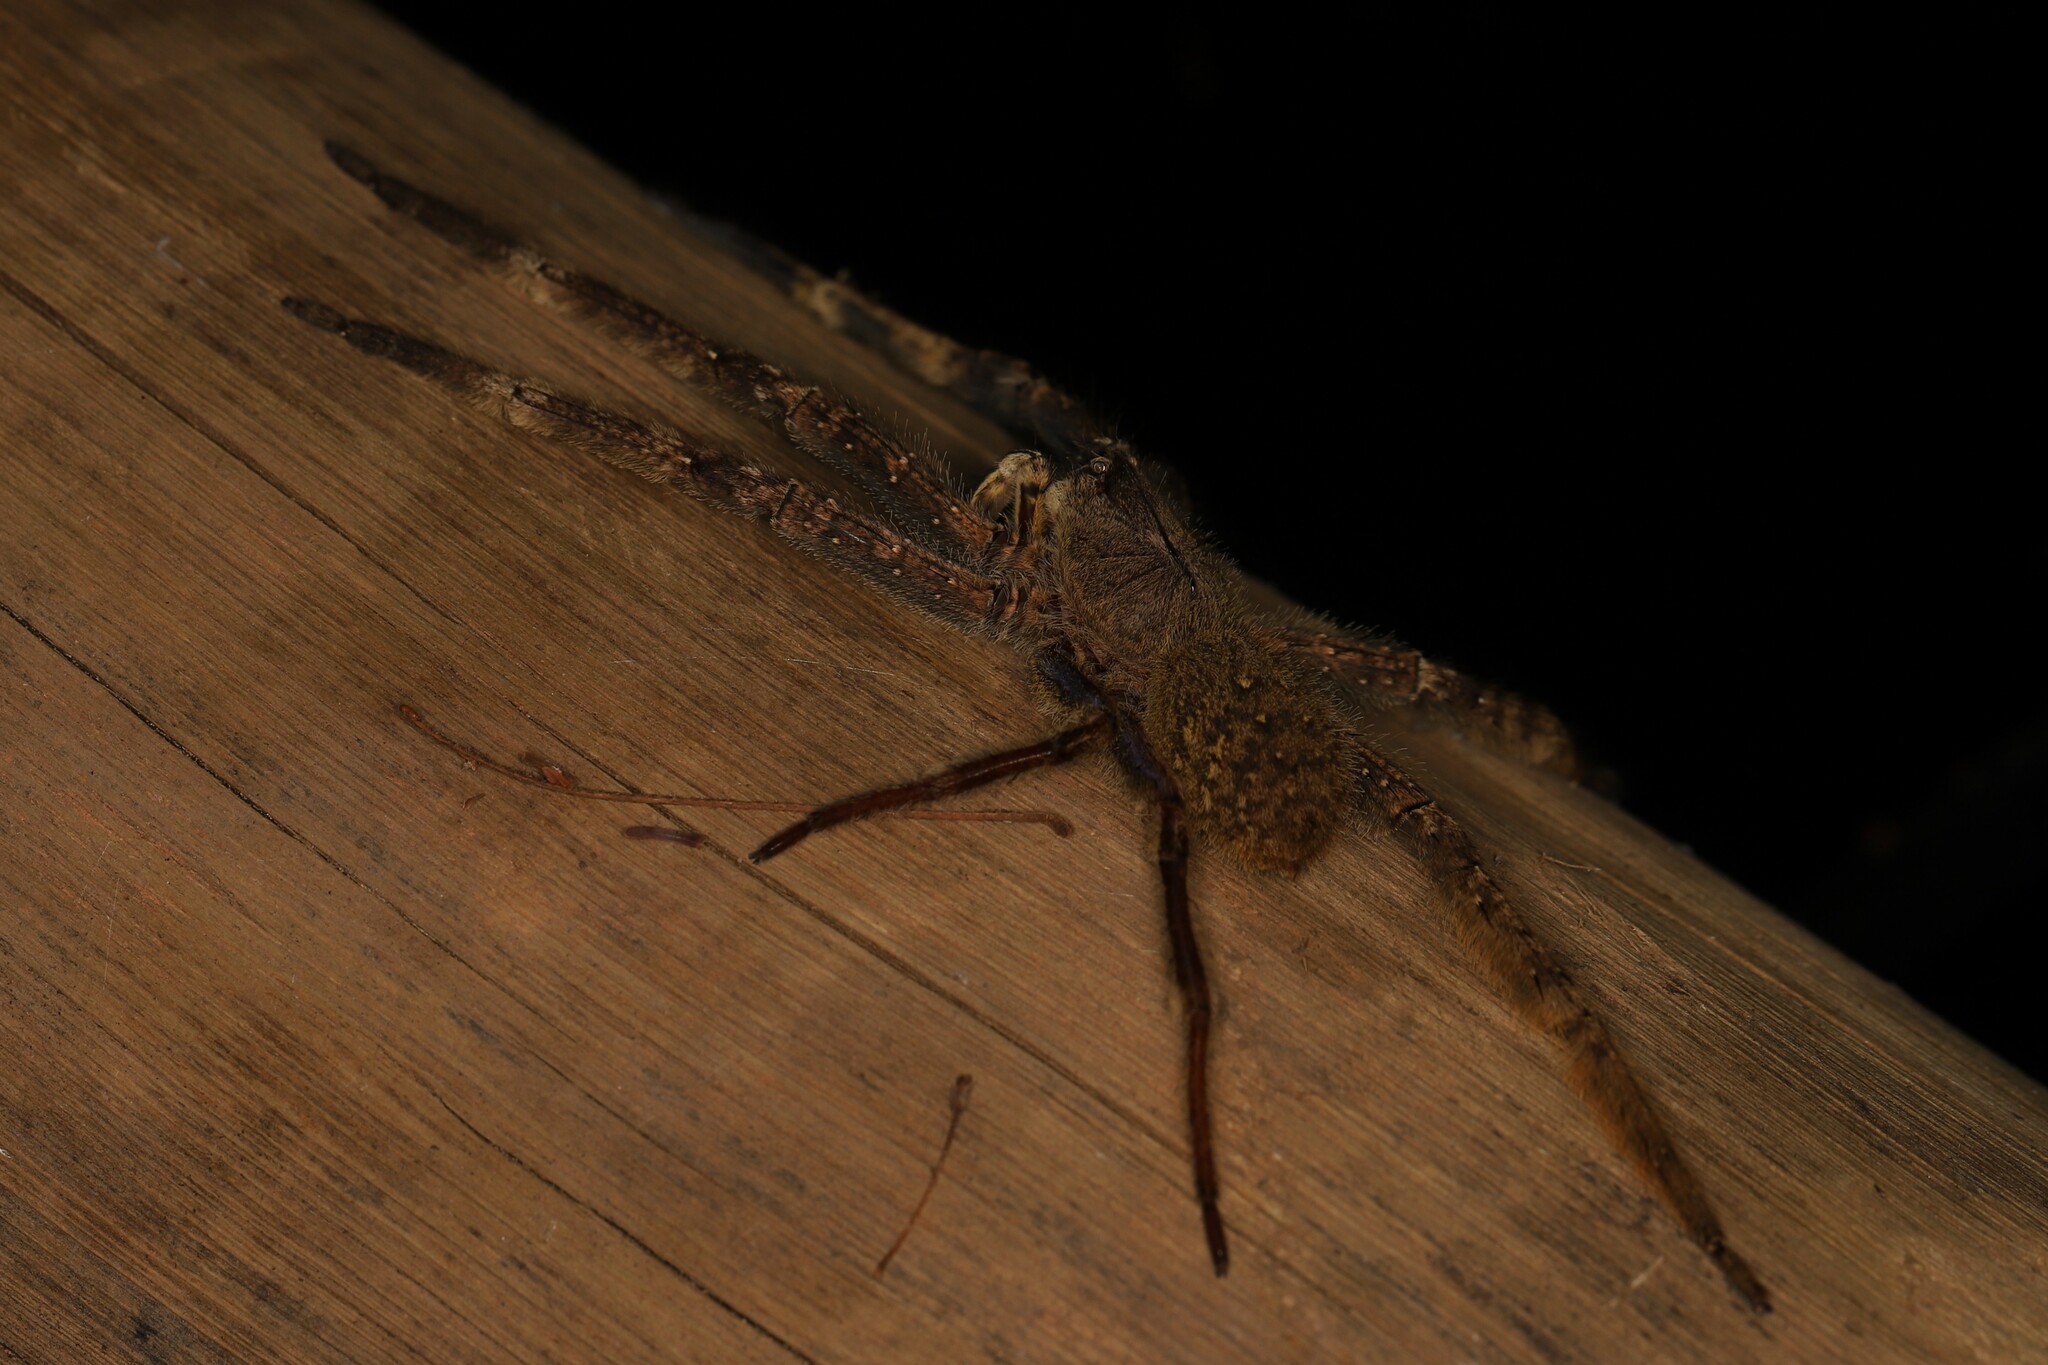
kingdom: Animalia
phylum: Arthropoda
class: Arachnida
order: Araneae
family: Ctenidae
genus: Phoneutria
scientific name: Phoneutria reidyi
